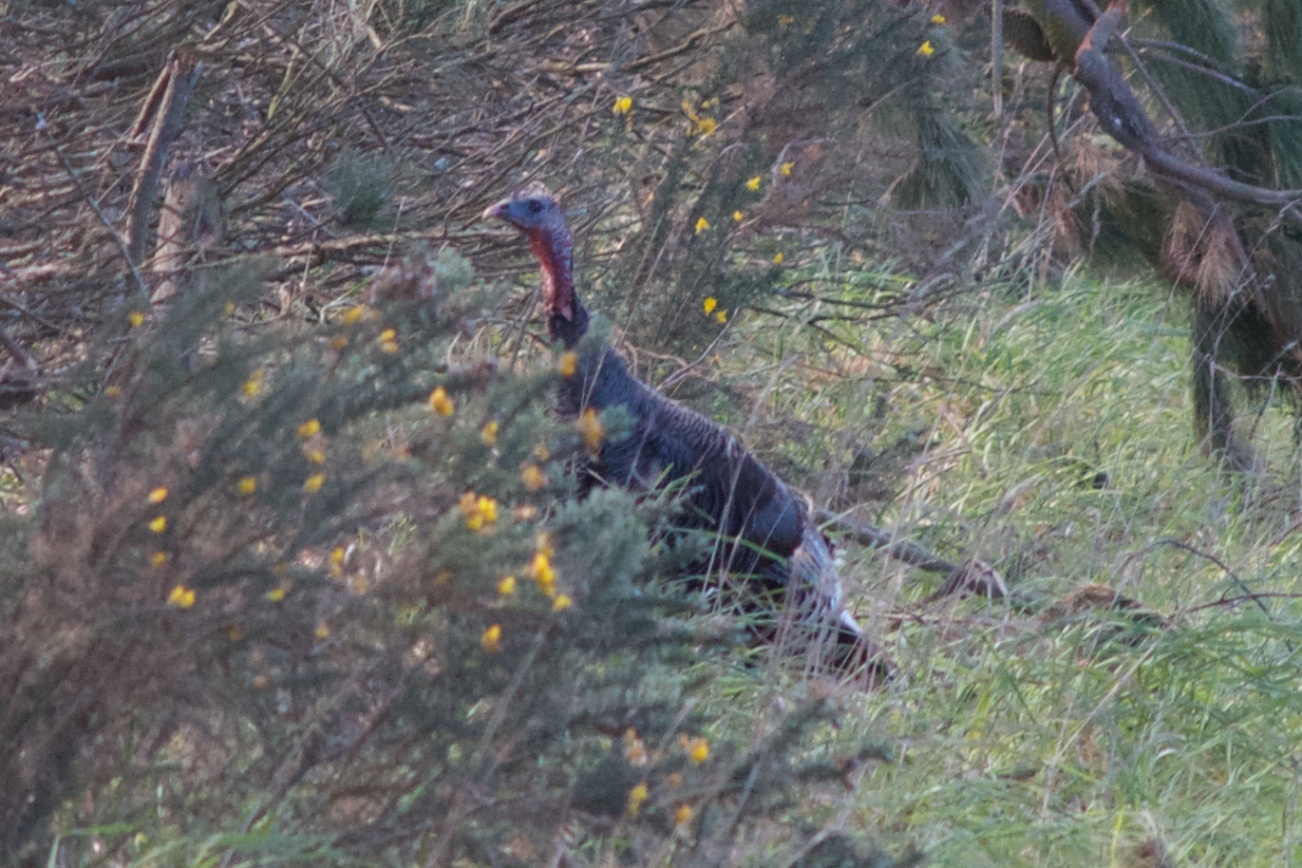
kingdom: Animalia
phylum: Chordata
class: Aves
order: Galliformes
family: Phasianidae
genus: Meleagris
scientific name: Meleagris gallopavo
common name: Wild turkey
